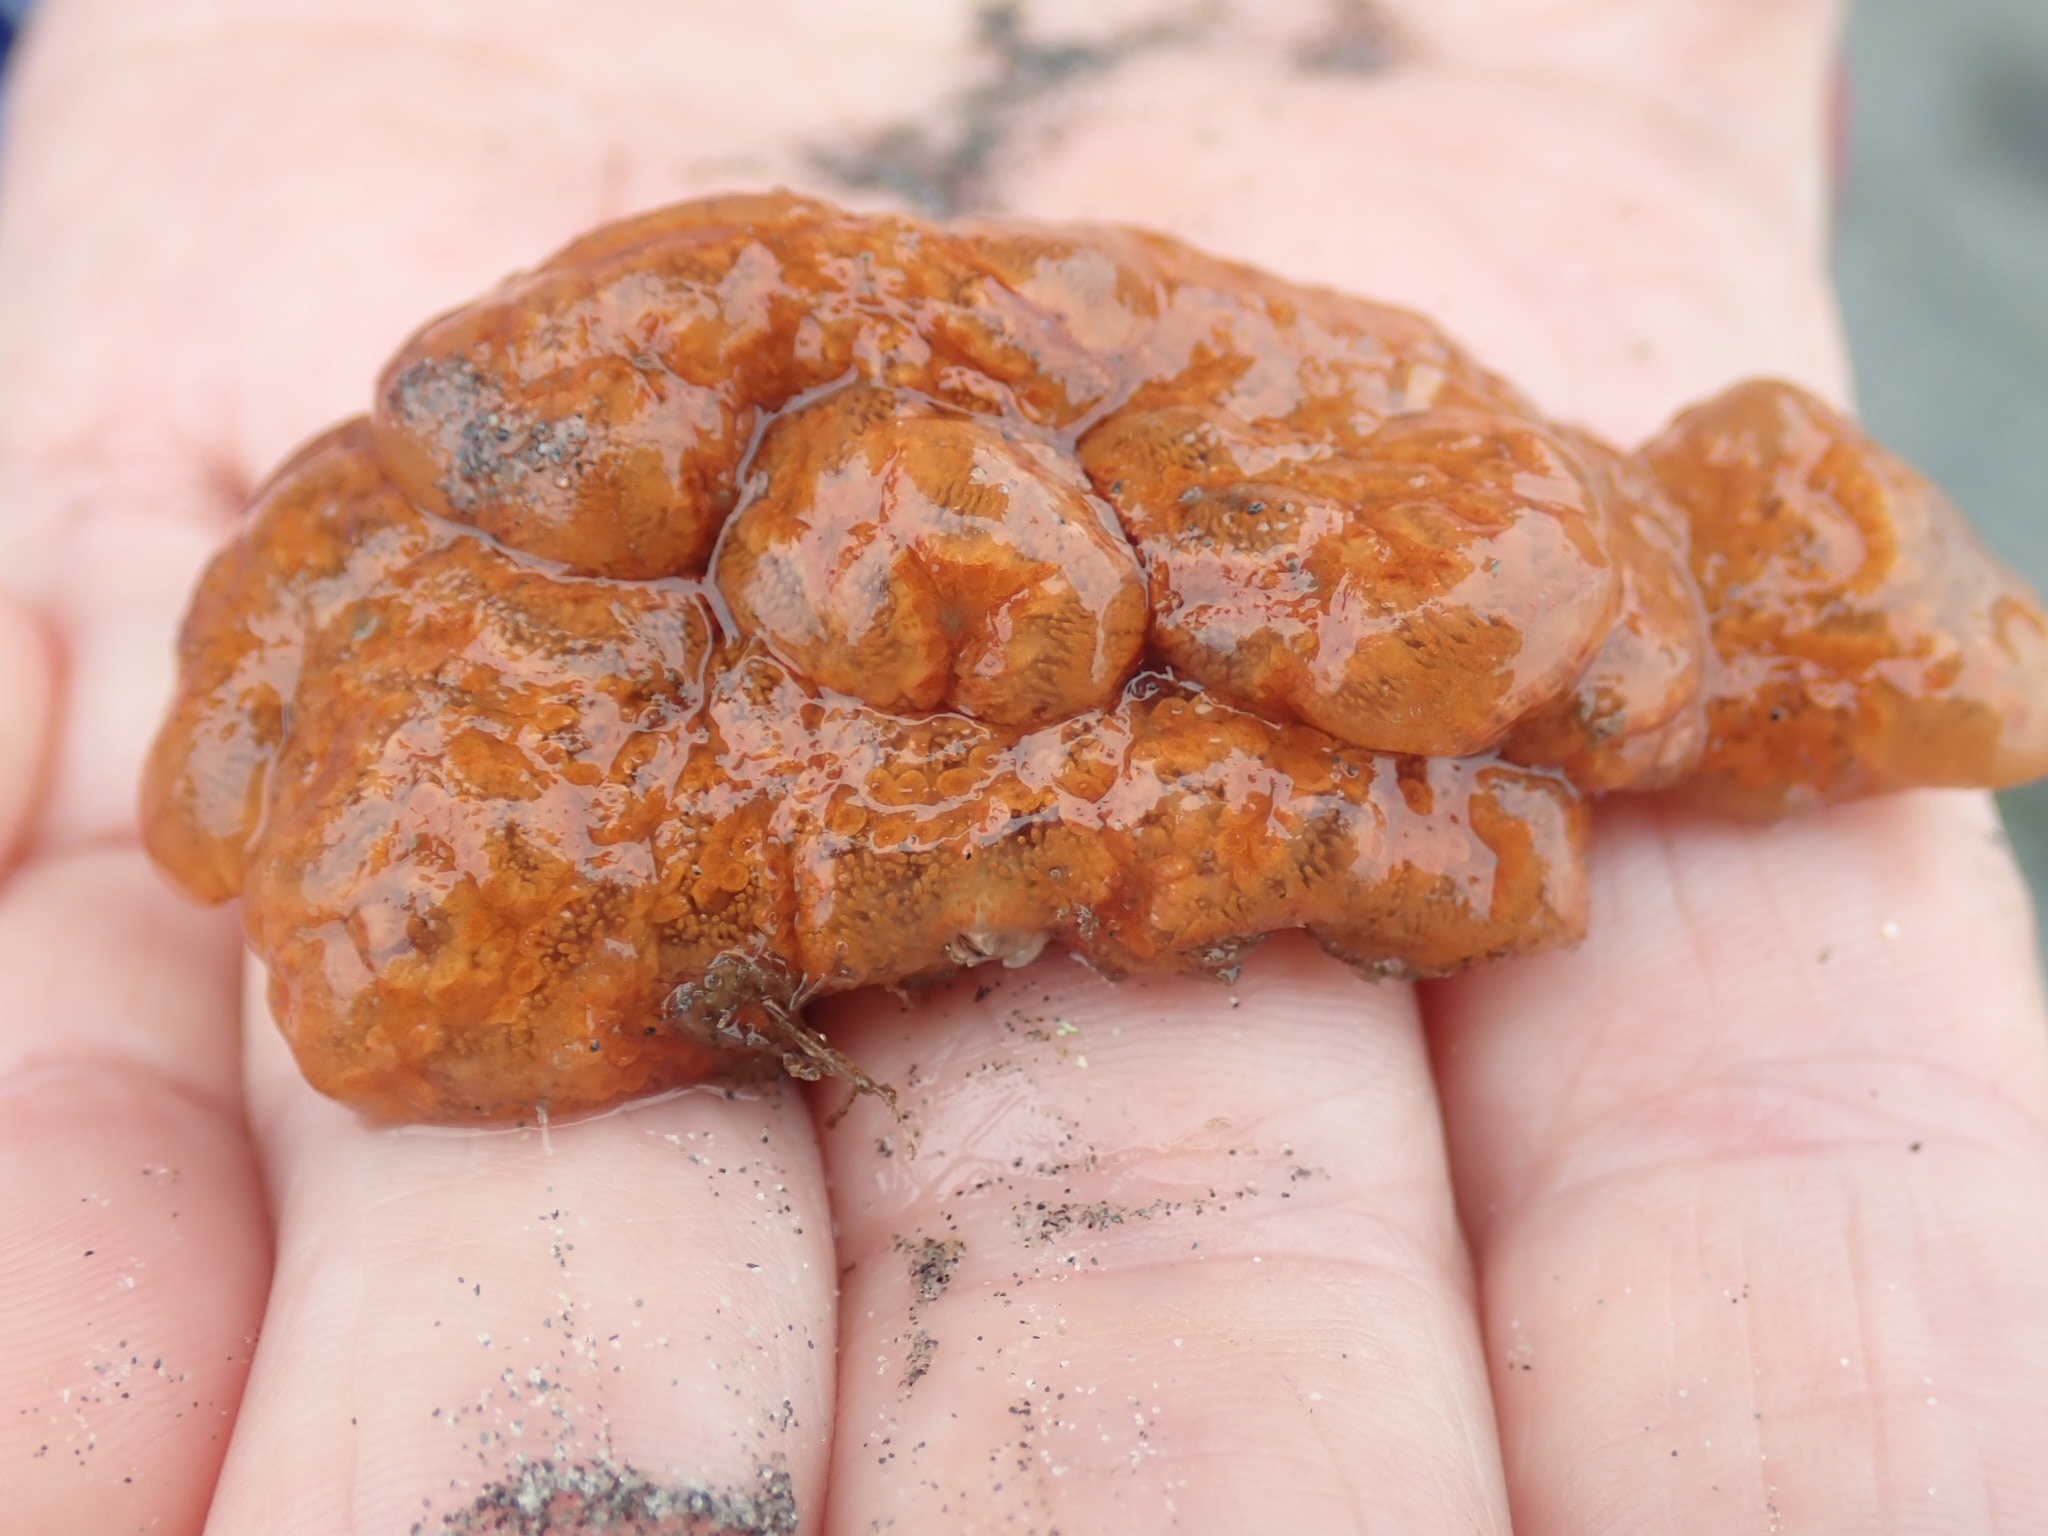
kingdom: Animalia
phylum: Chordata
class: Ascidiacea
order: Stolidobranchia
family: Styelidae
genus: Botrylloides
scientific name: Botrylloides violaceus
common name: Colonial sea squirt
